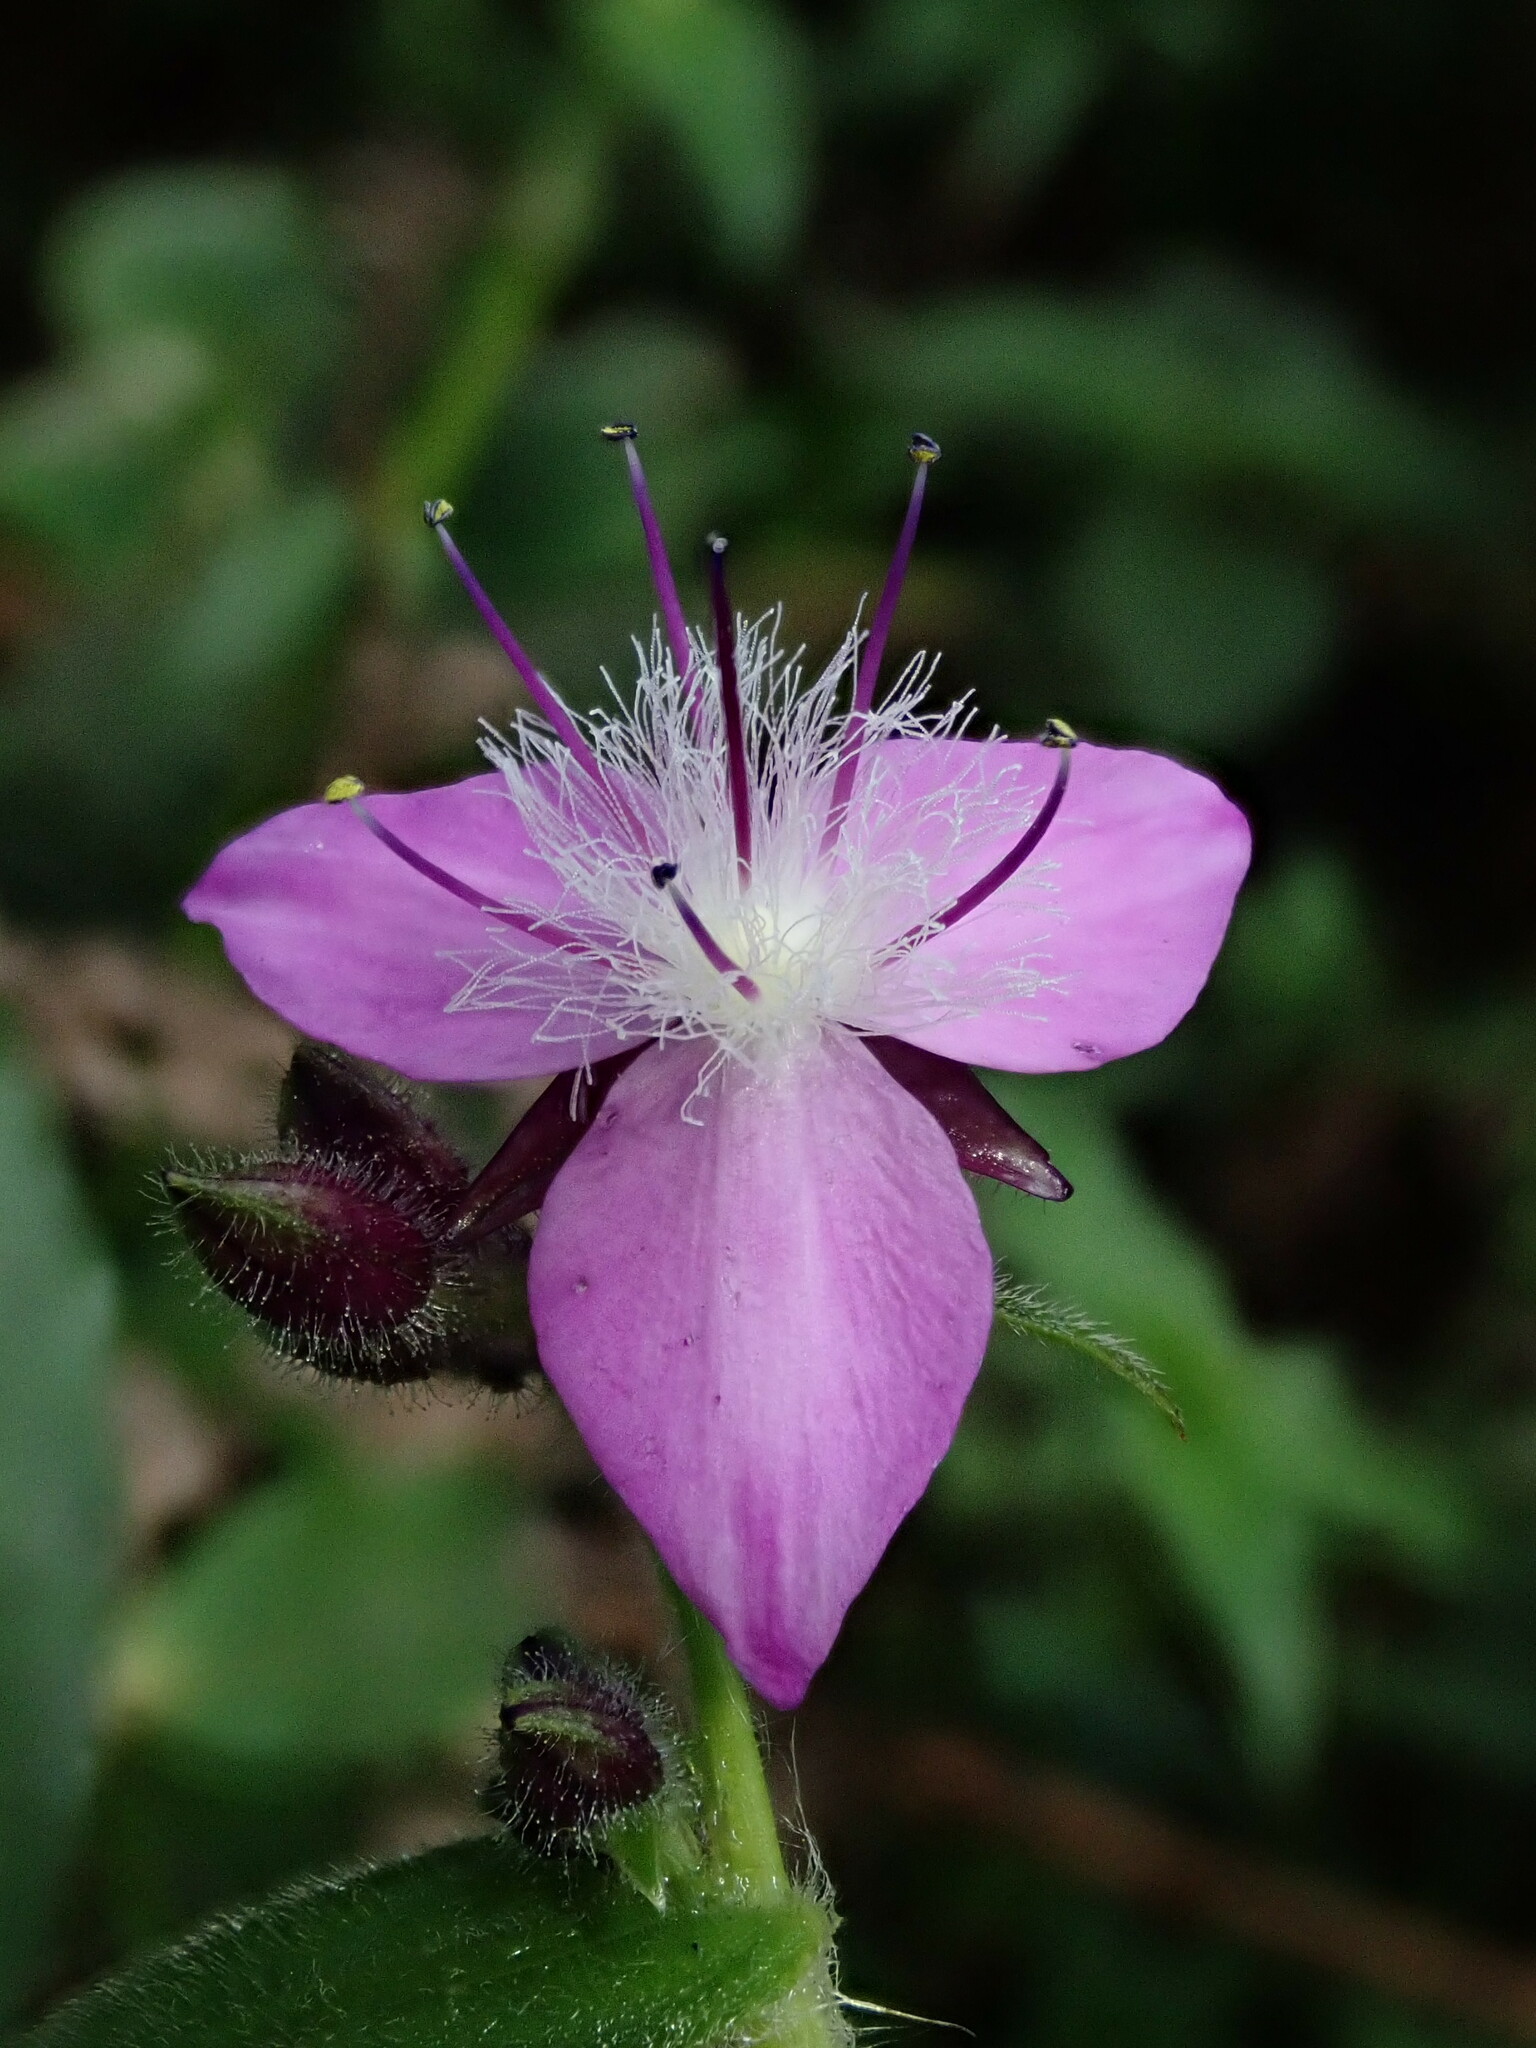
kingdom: Plantae
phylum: Tracheophyta
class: Liliopsida
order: Commelinales
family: Commelinaceae
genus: Elasis
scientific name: Elasis hirsuta
